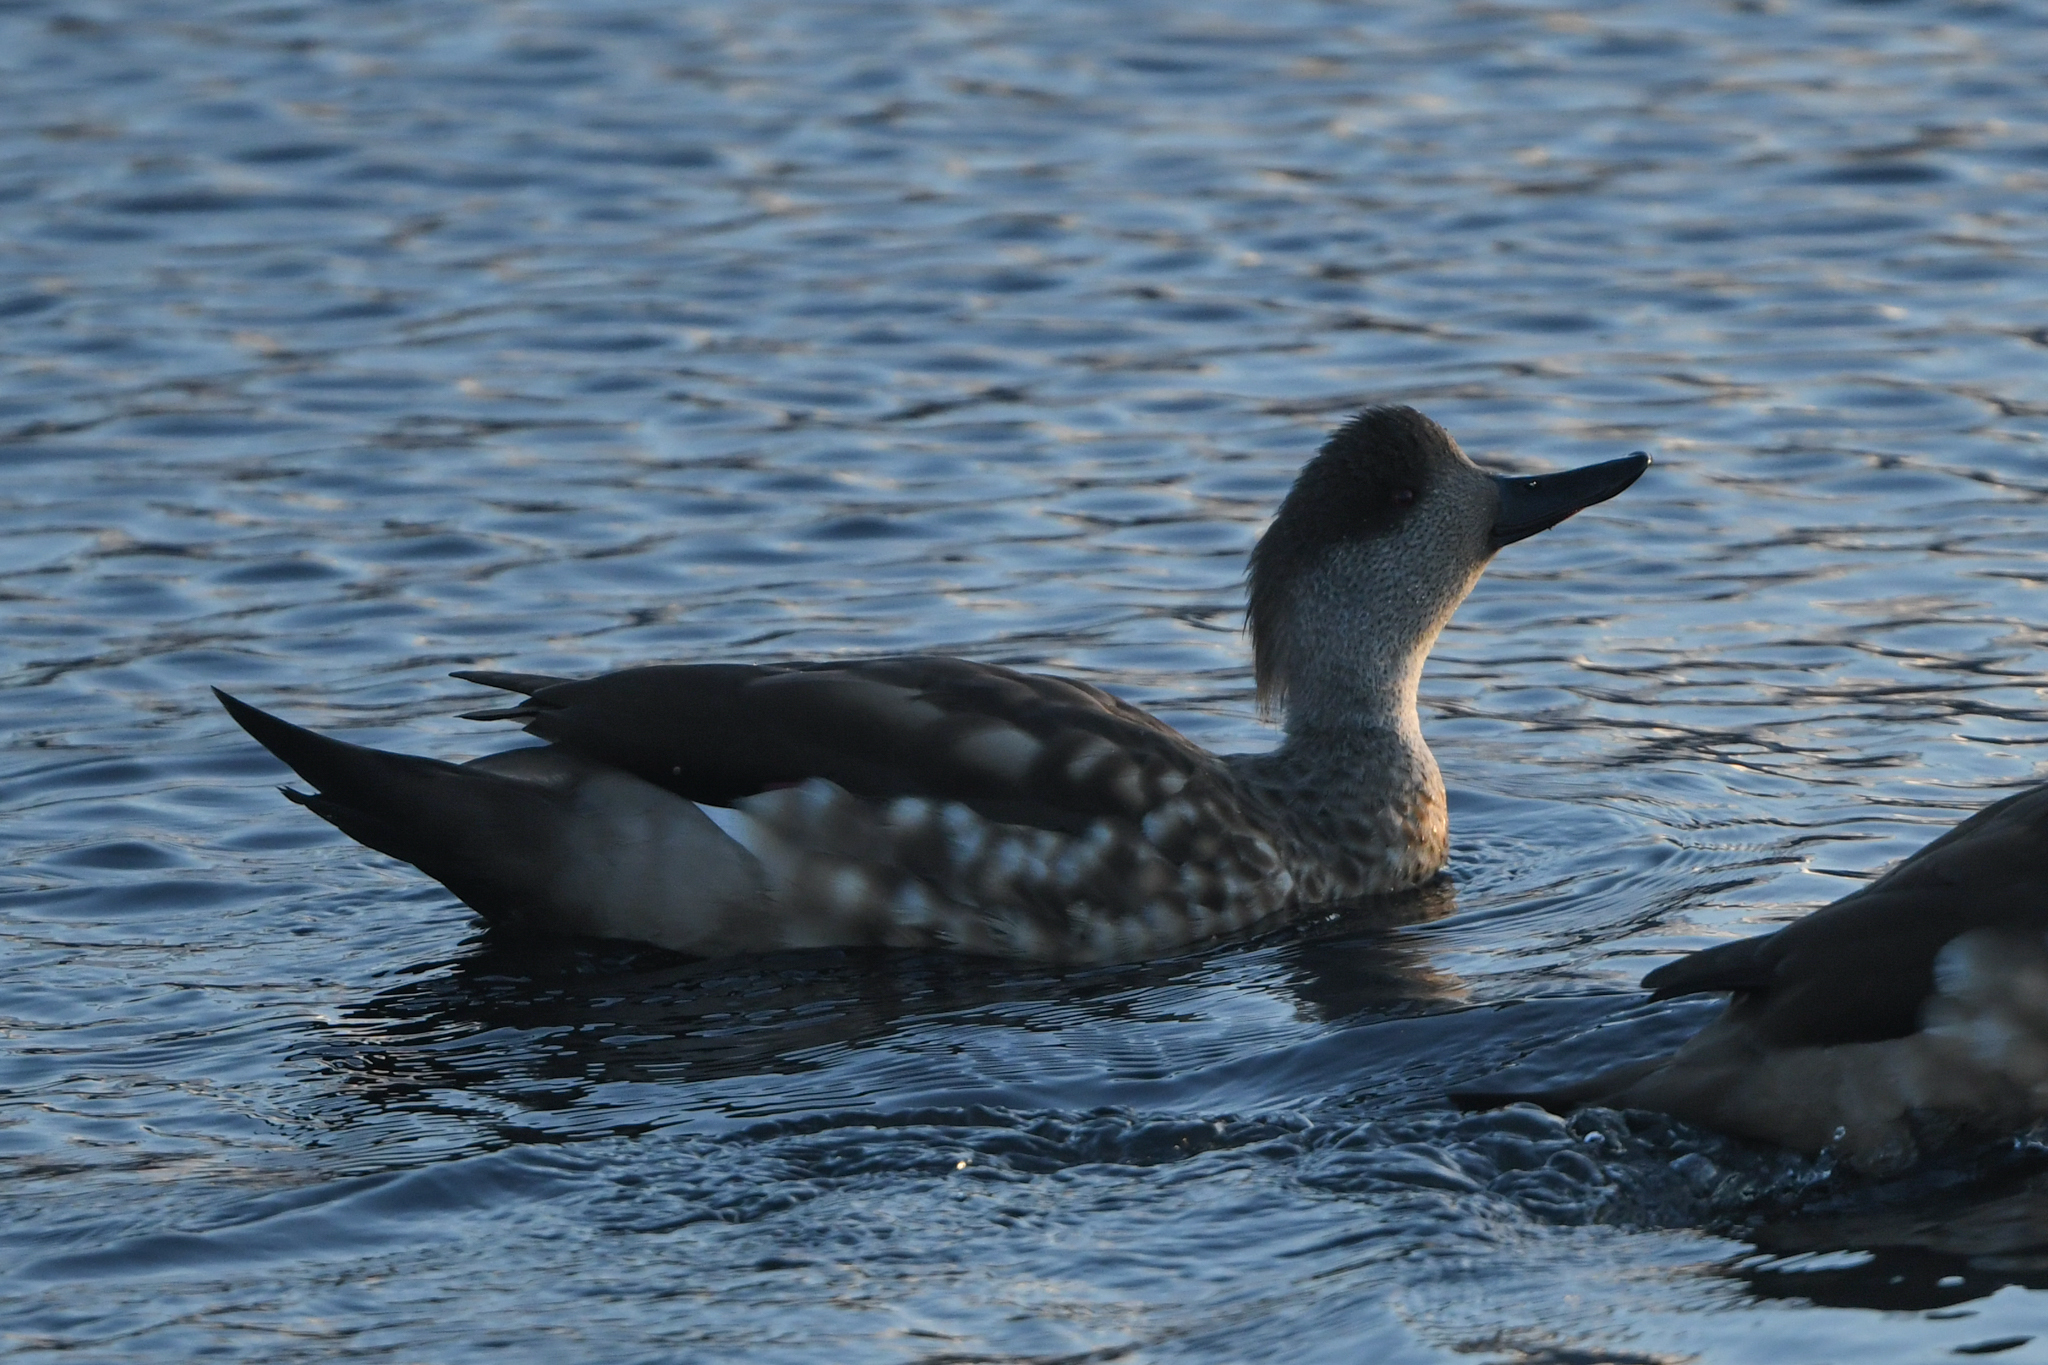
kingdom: Animalia
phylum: Chordata
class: Aves
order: Anseriformes
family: Anatidae
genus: Lophonetta
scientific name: Lophonetta specularioides
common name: Crested duck
